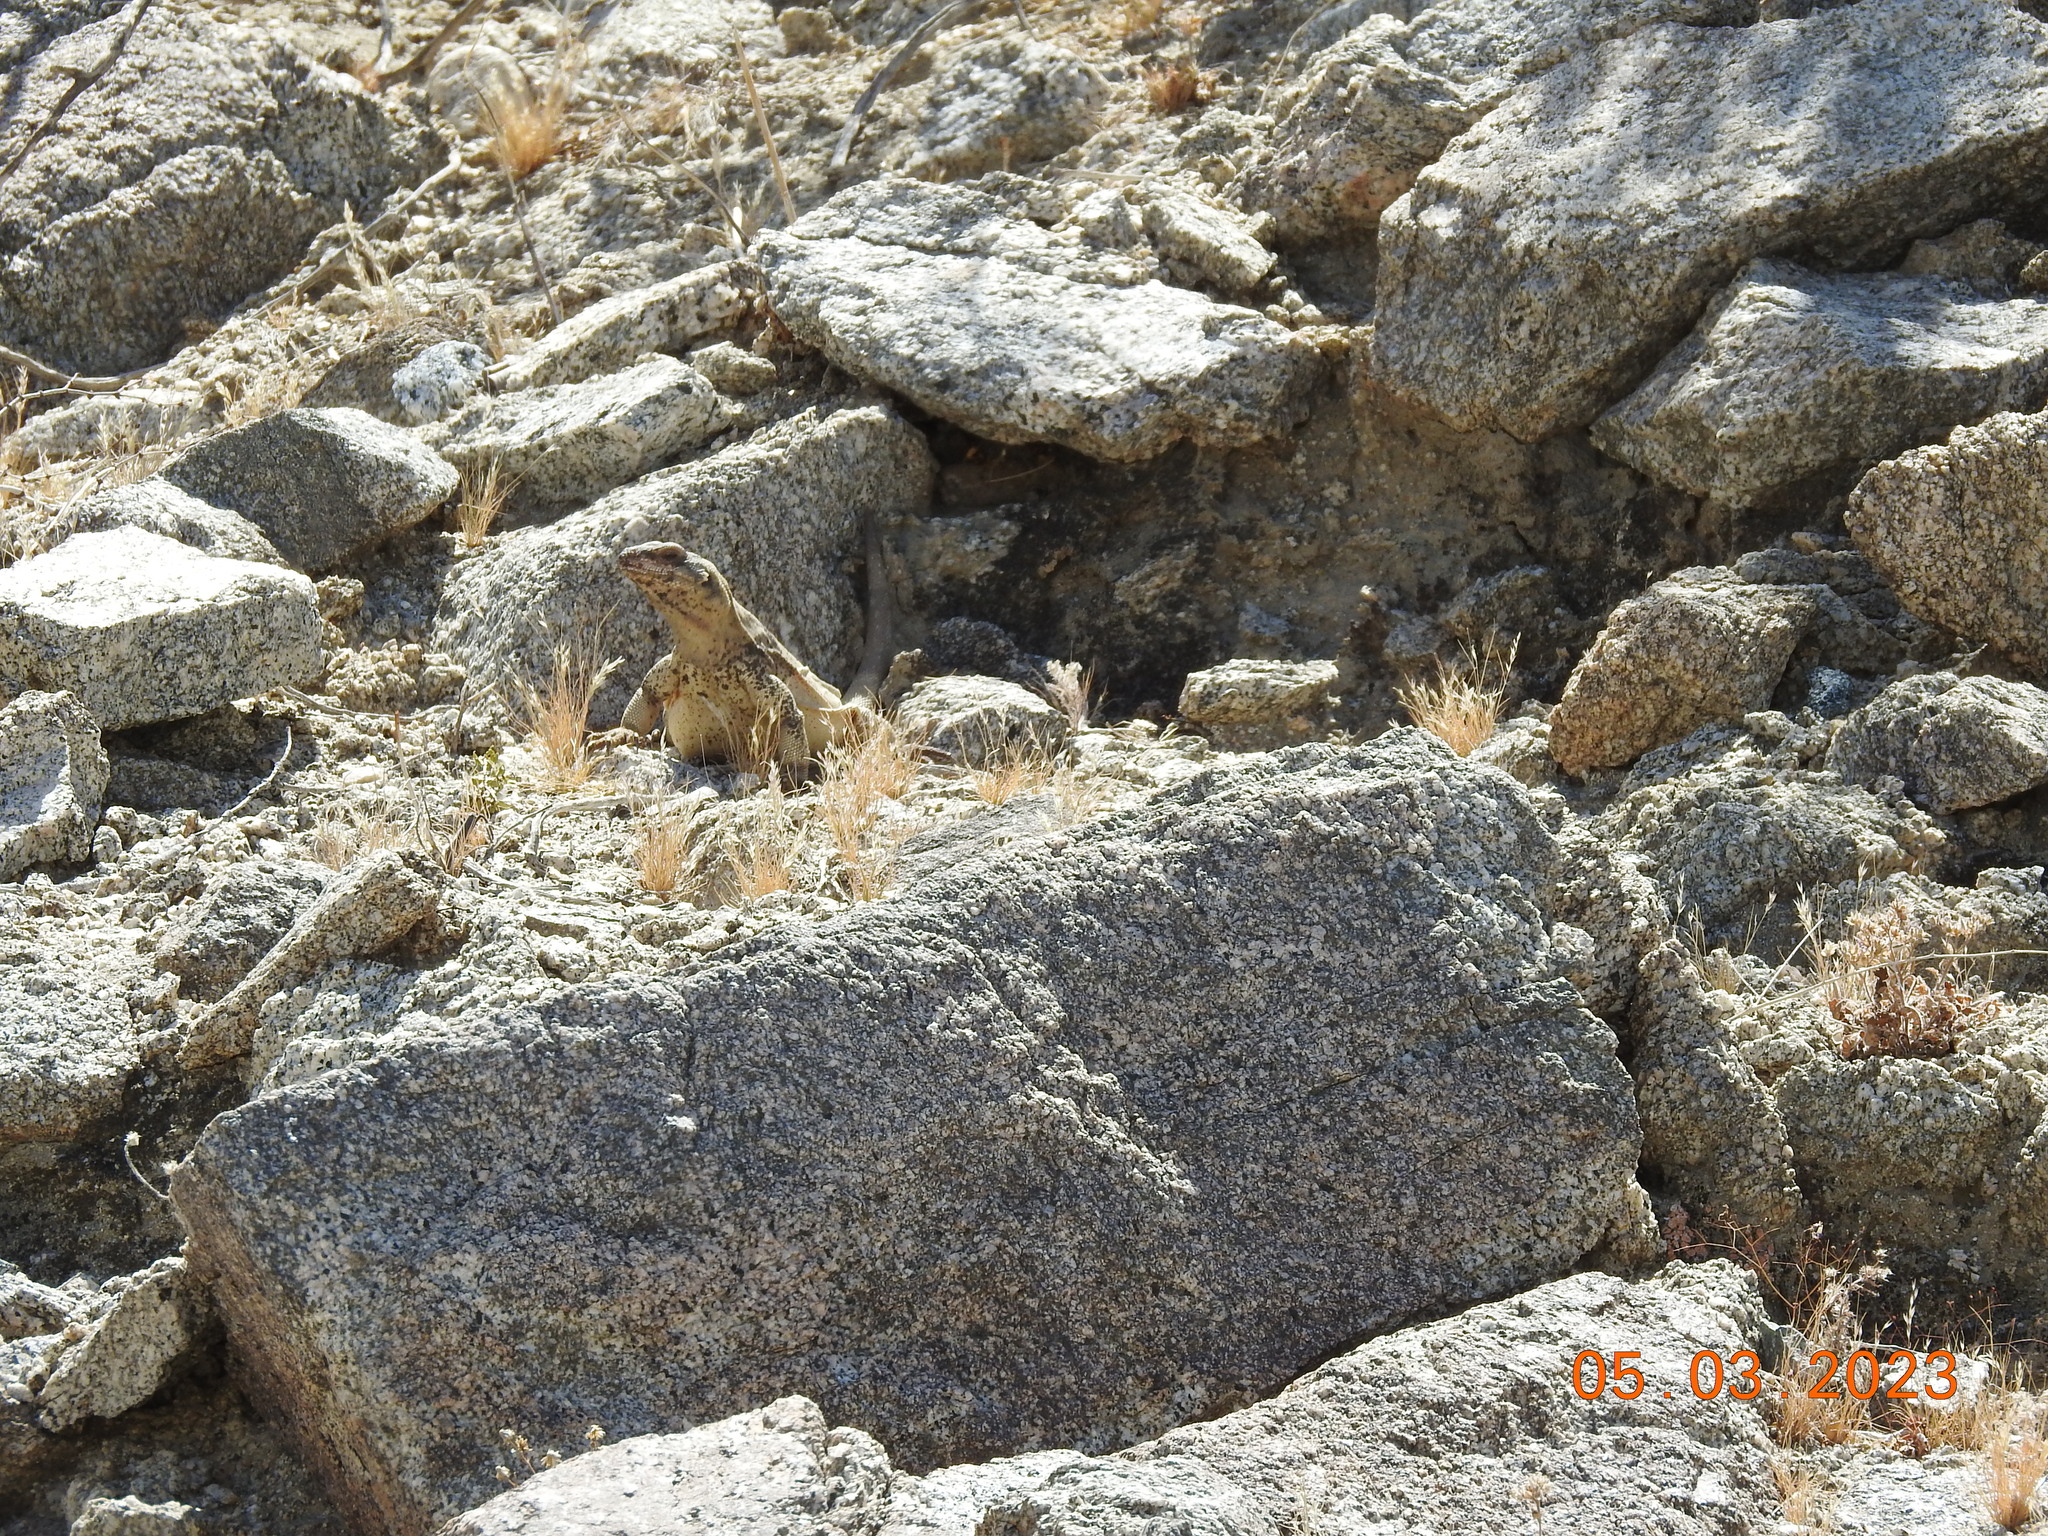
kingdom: Animalia
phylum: Chordata
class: Squamata
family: Iguanidae
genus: Sauromalus
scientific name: Sauromalus ater
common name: Northern chuckwalla
